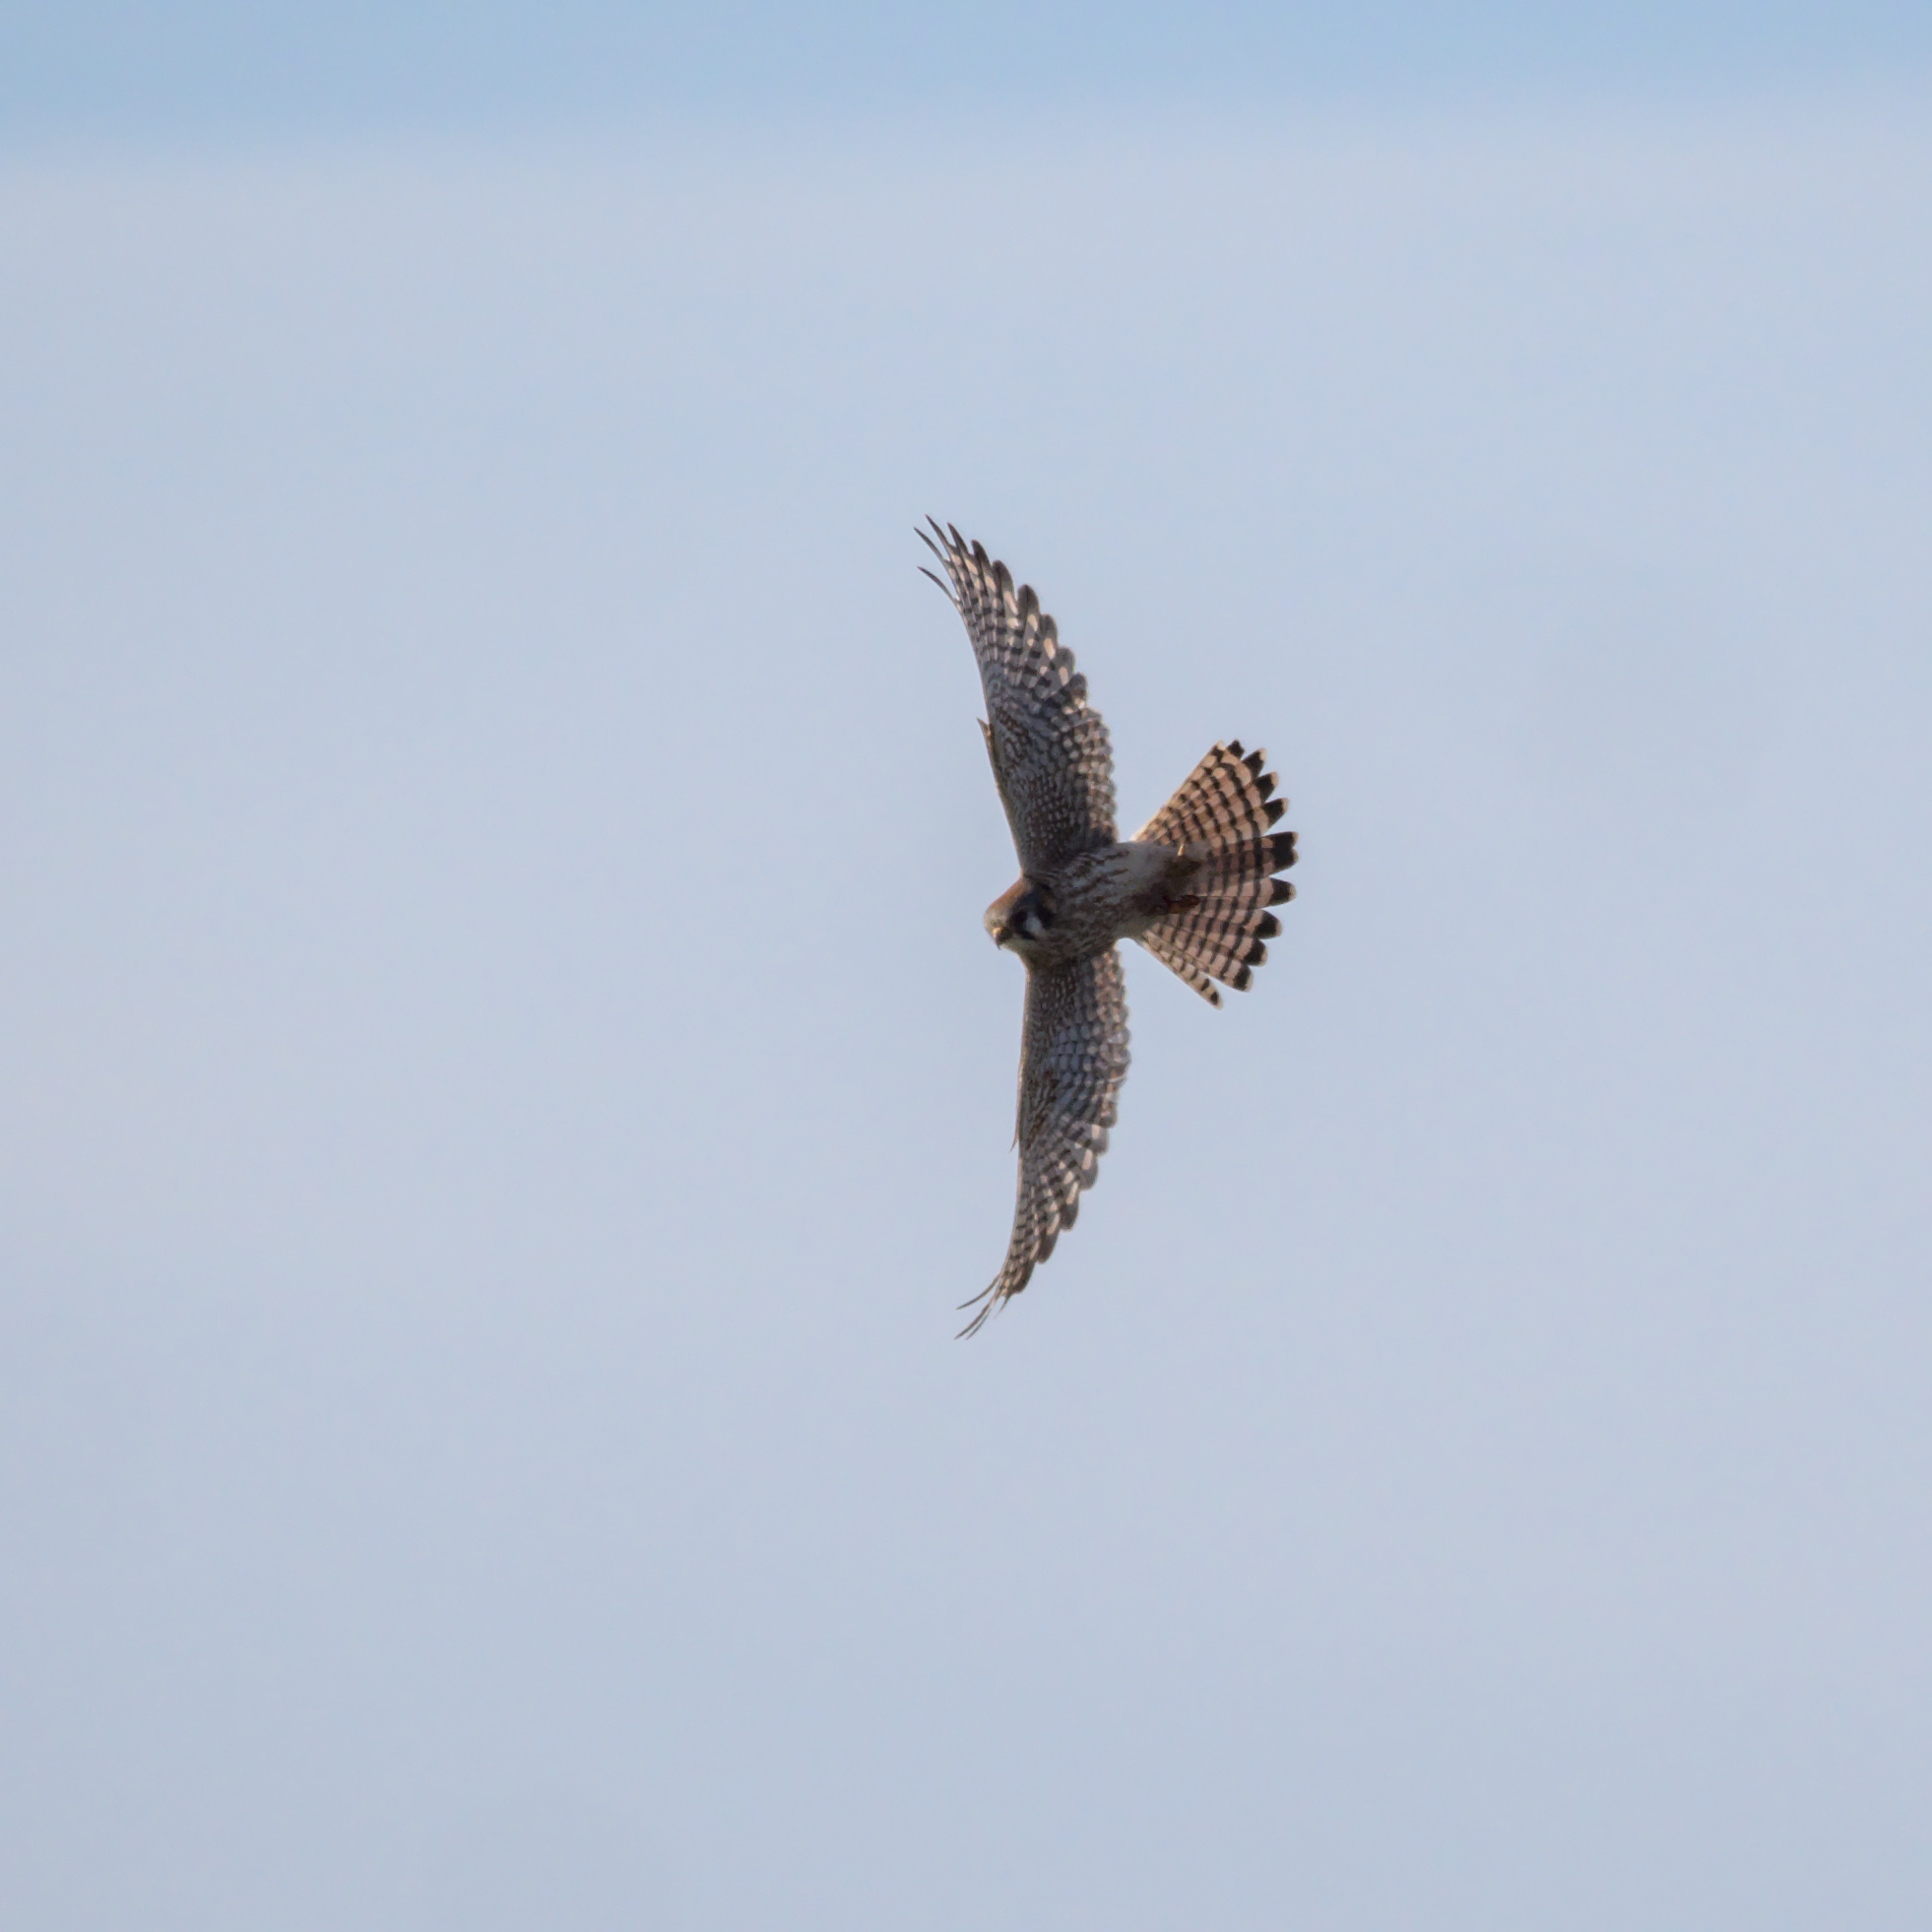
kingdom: Animalia
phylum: Chordata
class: Aves
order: Falconiformes
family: Falconidae
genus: Falco
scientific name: Falco sparverius
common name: American kestrel
